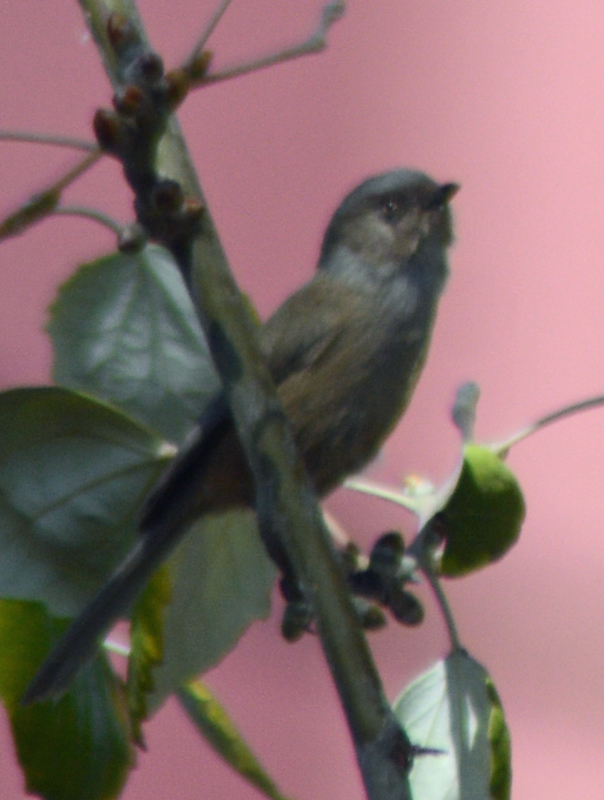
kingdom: Animalia
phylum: Chordata
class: Aves
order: Passeriformes
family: Aegithalidae
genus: Psaltriparus
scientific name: Psaltriparus minimus
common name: American bushtit
